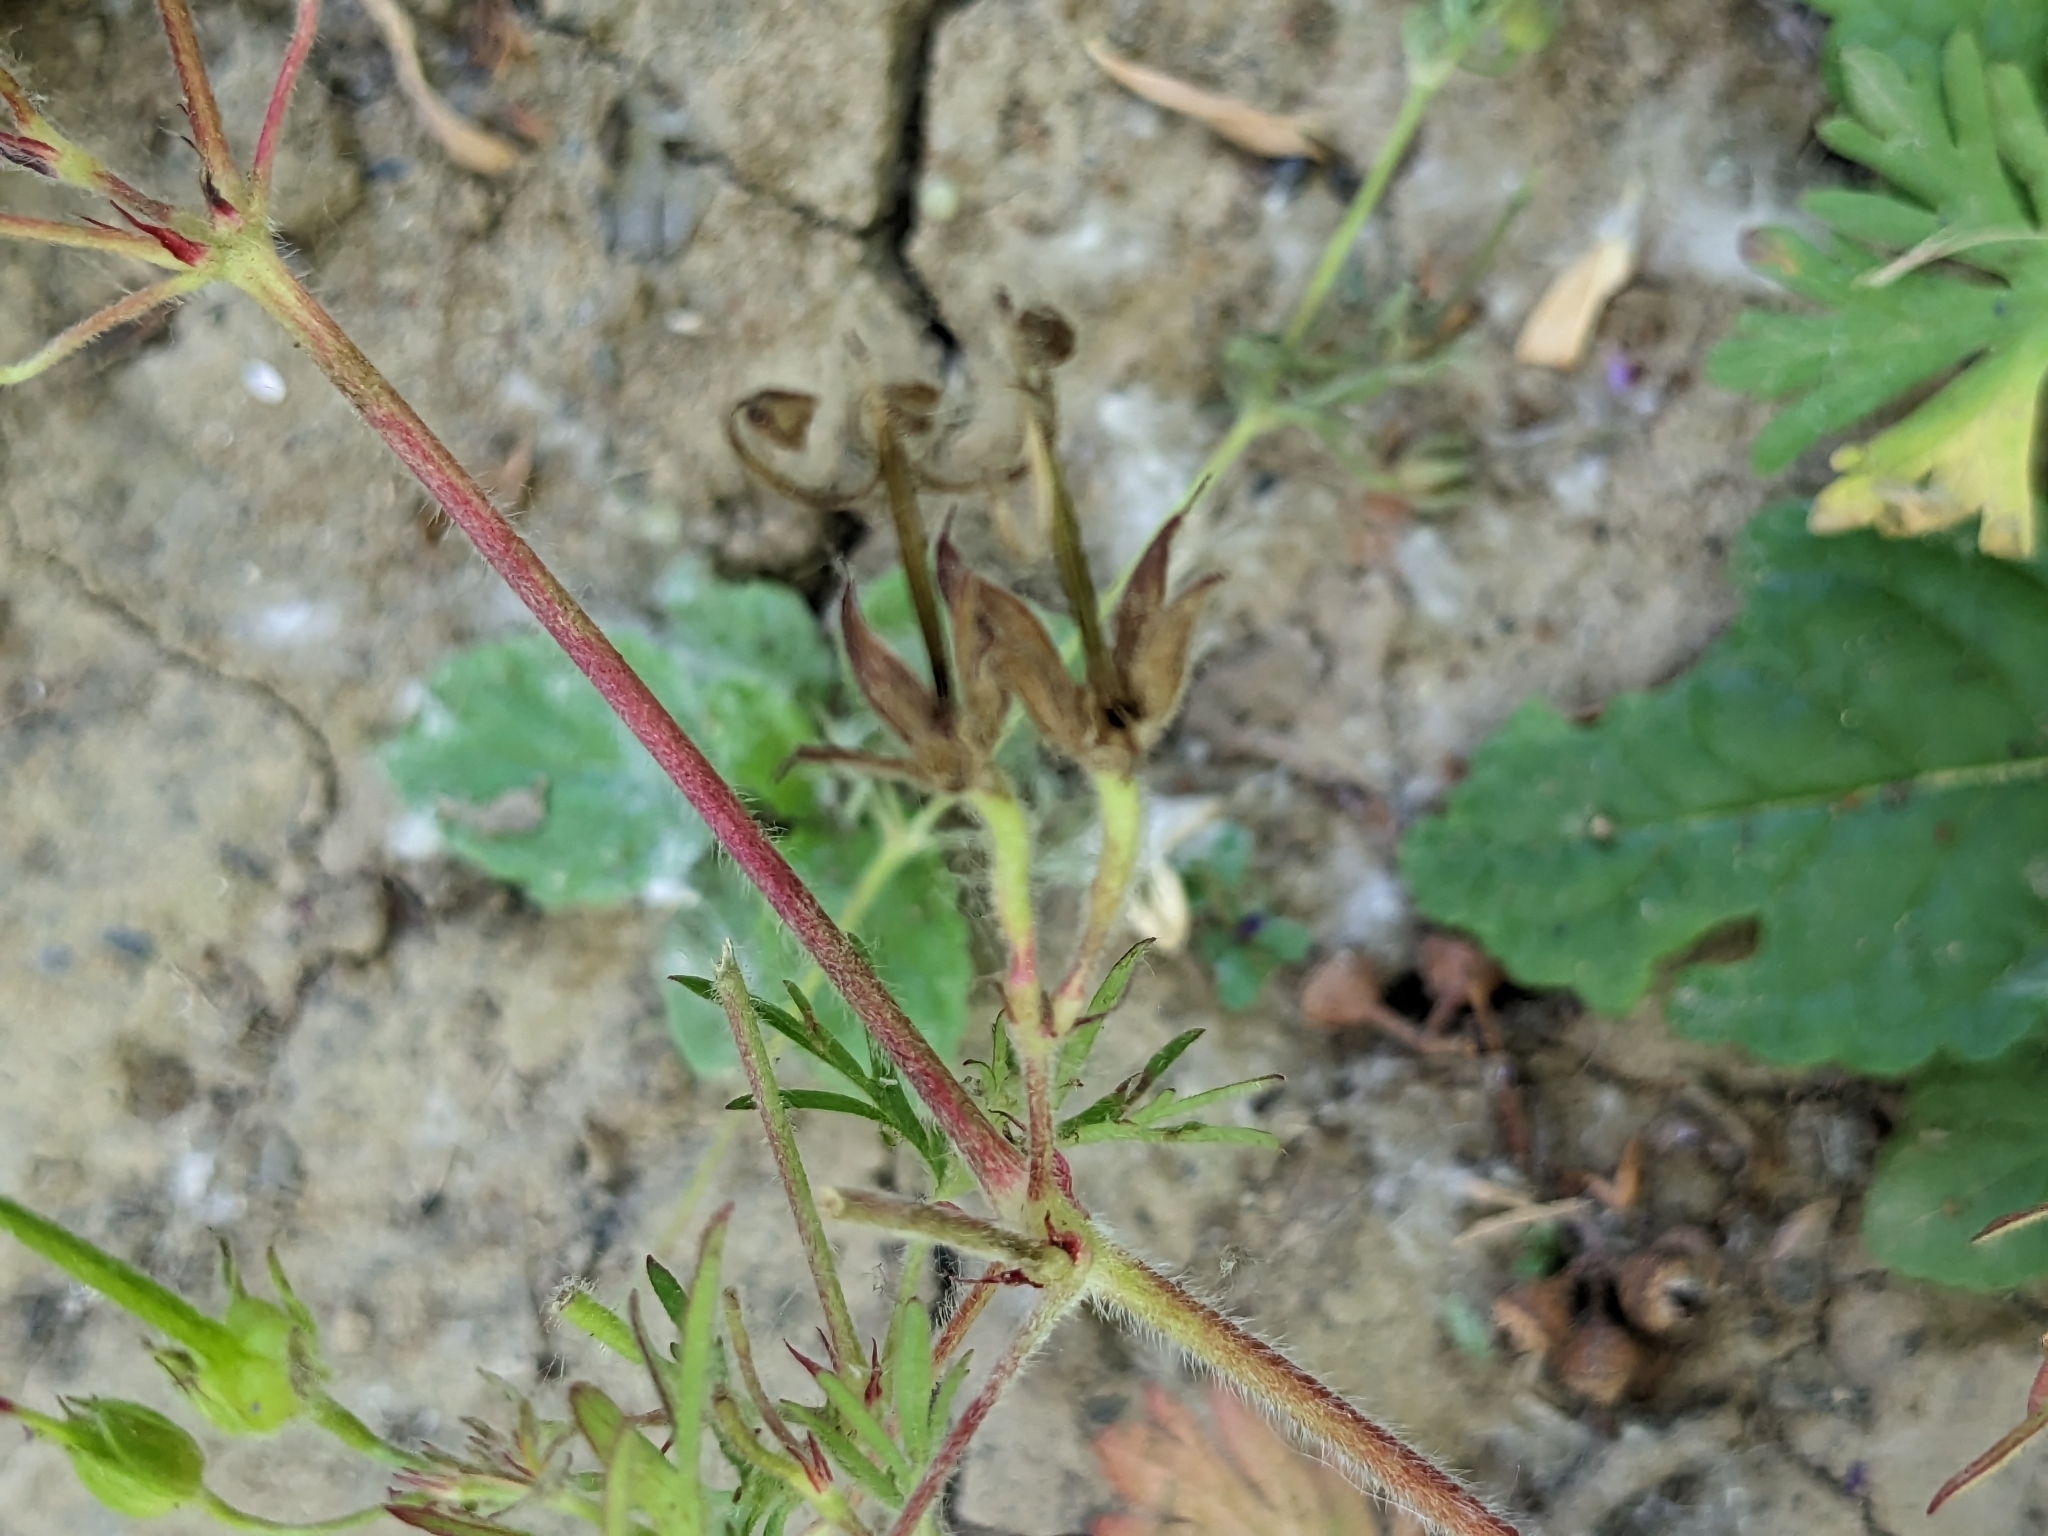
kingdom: Plantae
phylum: Tracheophyta
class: Magnoliopsida
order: Geraniales
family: Geraniaceae
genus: Geranium
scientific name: Geranium dissectum
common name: Cut-leaved crane's-bill
